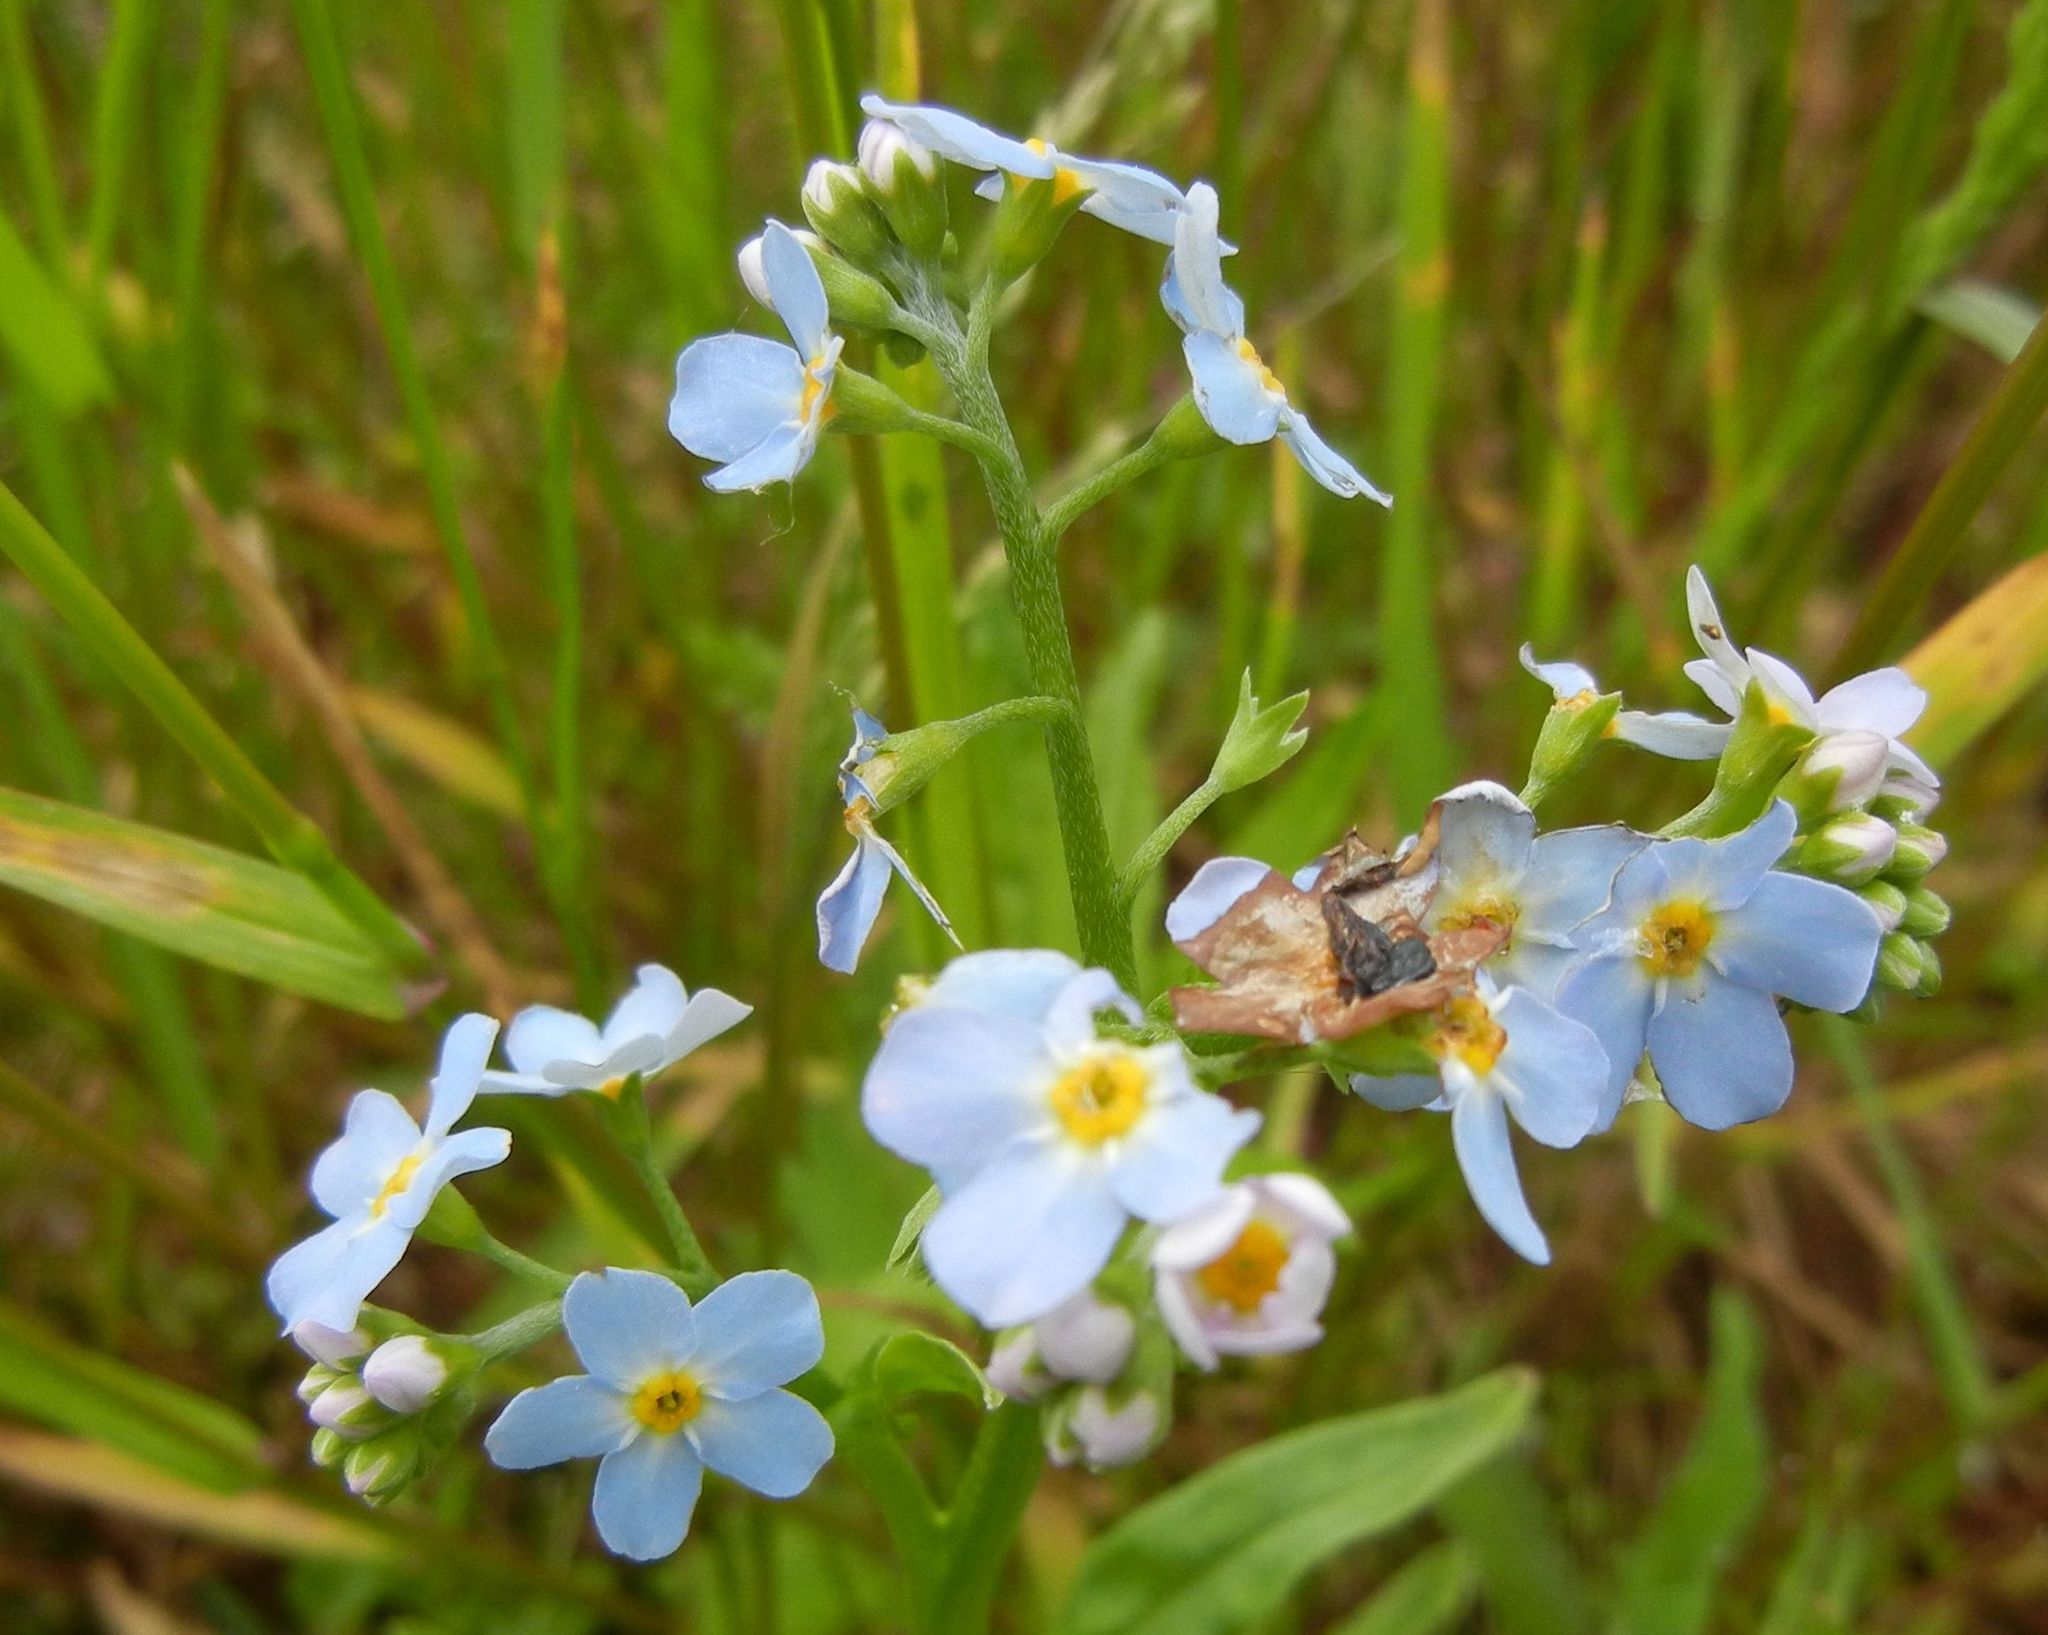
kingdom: Plantae
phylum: Tracheophyta
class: Magnoliopsida
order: Boraginales
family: Boraginaceae
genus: Myosotis
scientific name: Myosotis scorpioides
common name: Water forget-me-not
